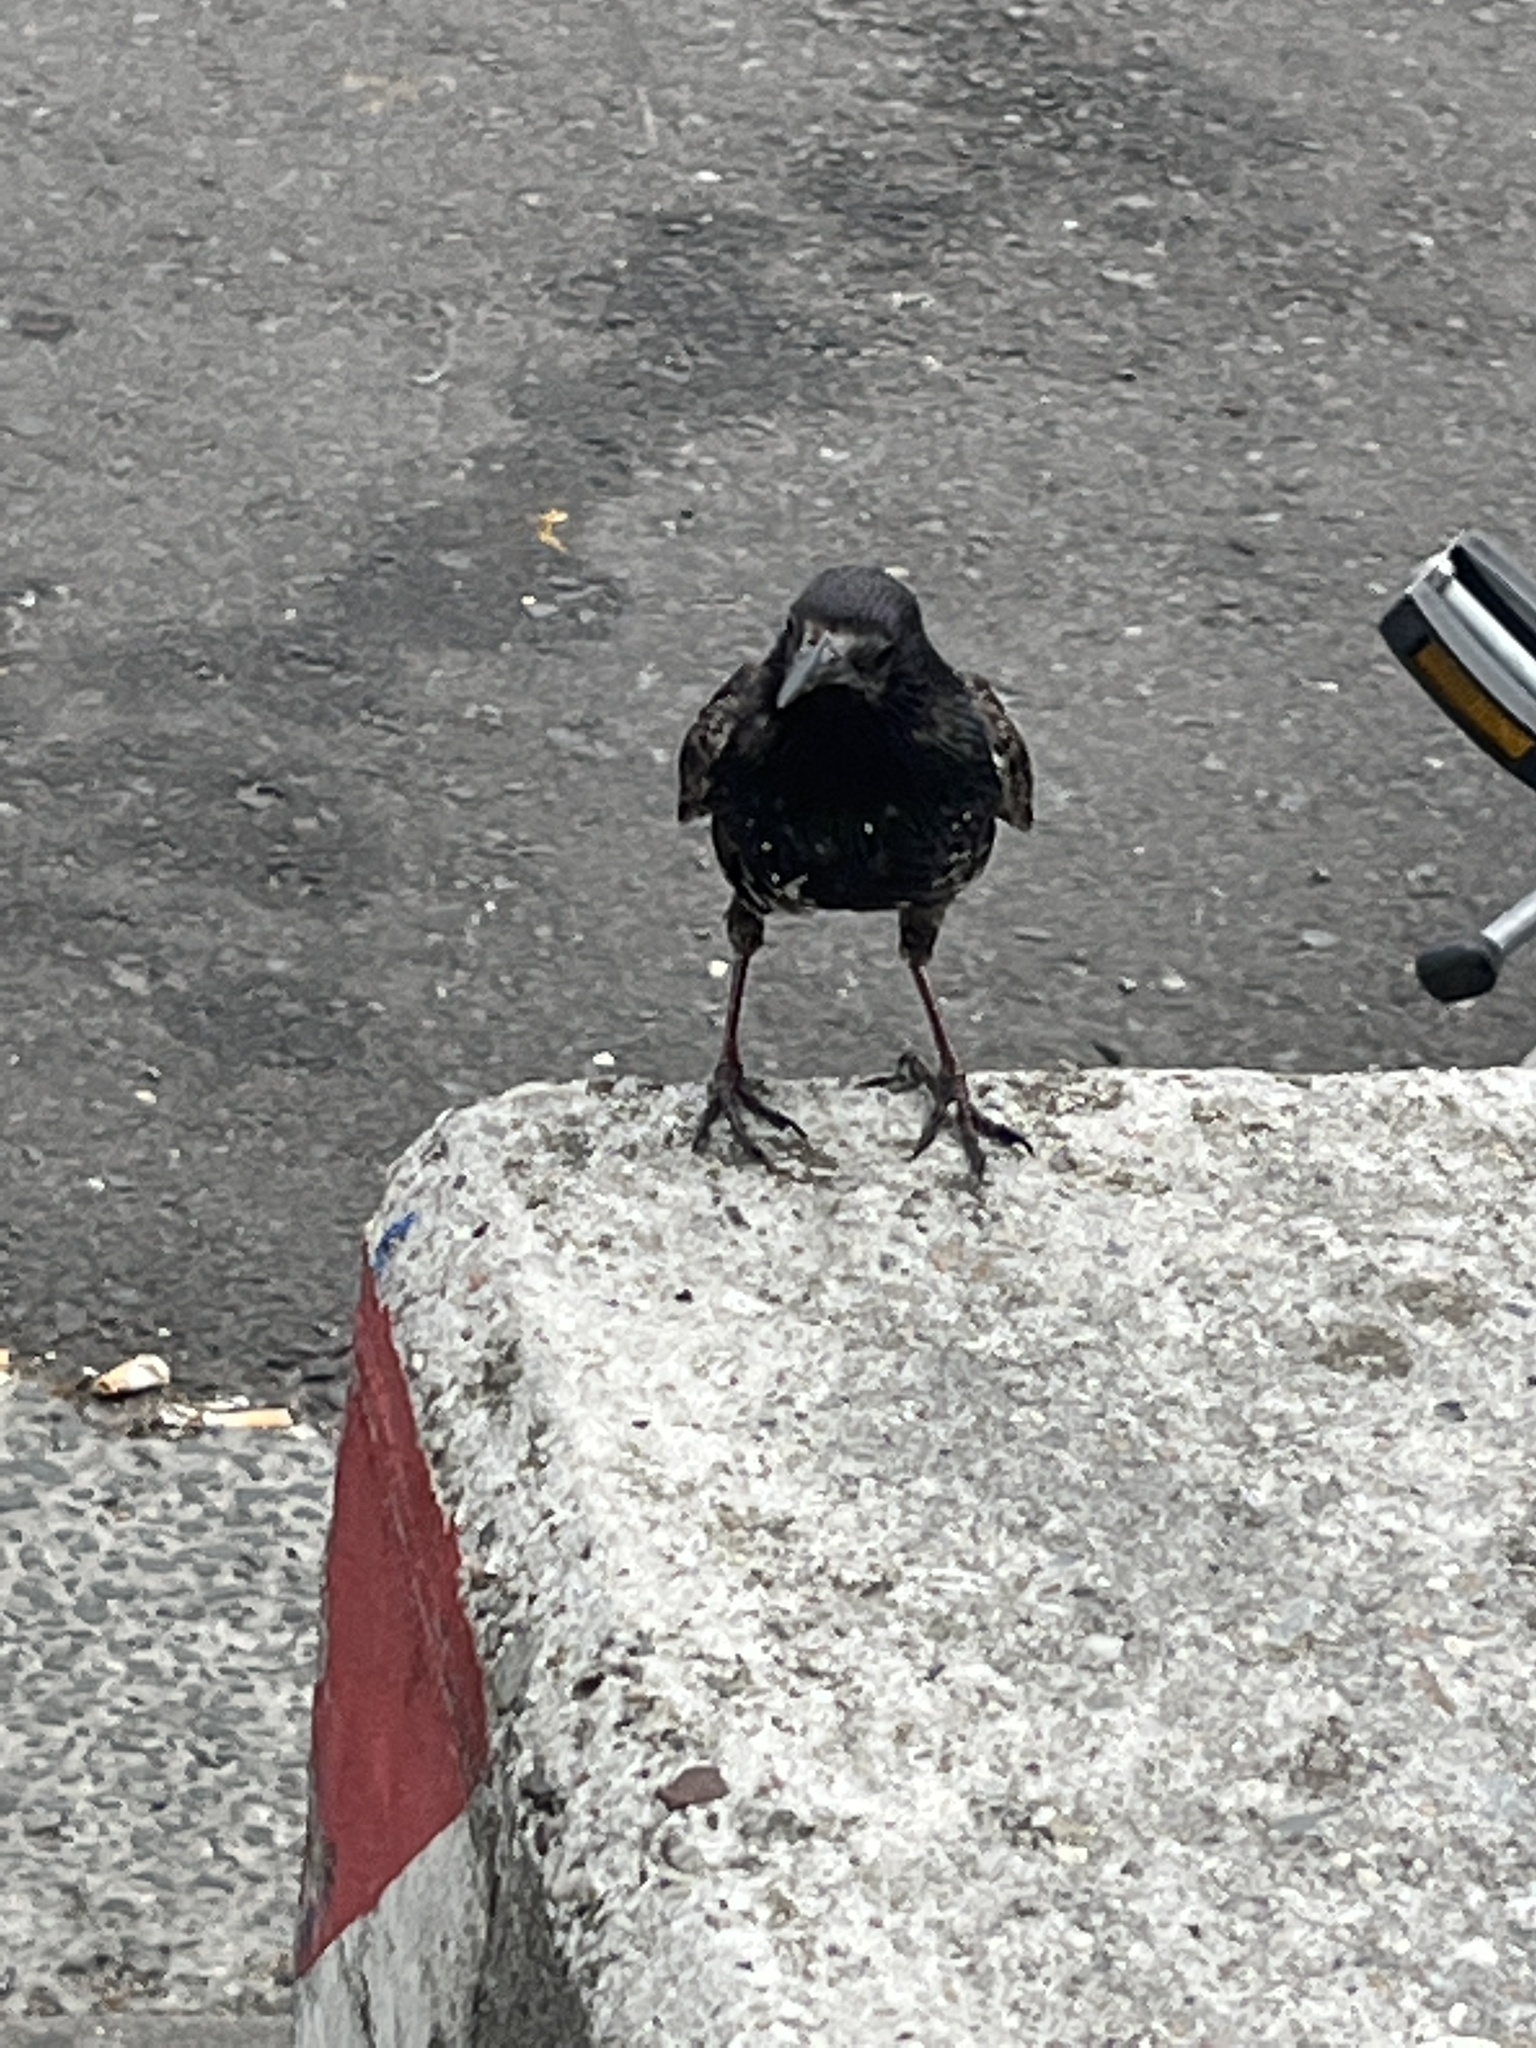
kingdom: Animalia
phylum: Chordata
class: Aves
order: Passeriformes
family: Sturnidae
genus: Sturnus
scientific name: Sturnus vulgaris
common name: Common starling
